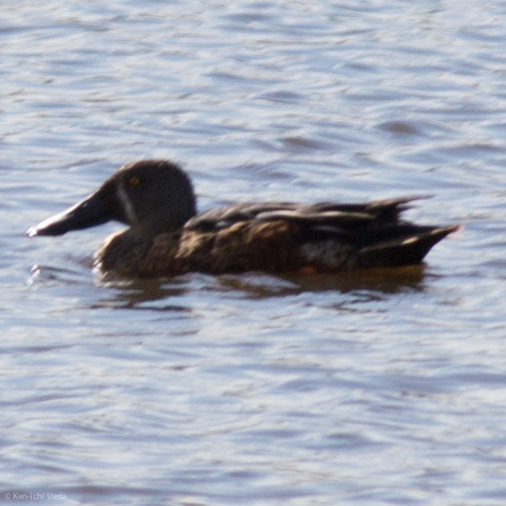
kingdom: Animalia
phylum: Chordata
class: Aves
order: Anseriformes
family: Anatidae
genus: Spatula
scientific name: Spatula rhynchotis
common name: Australian shoveler
